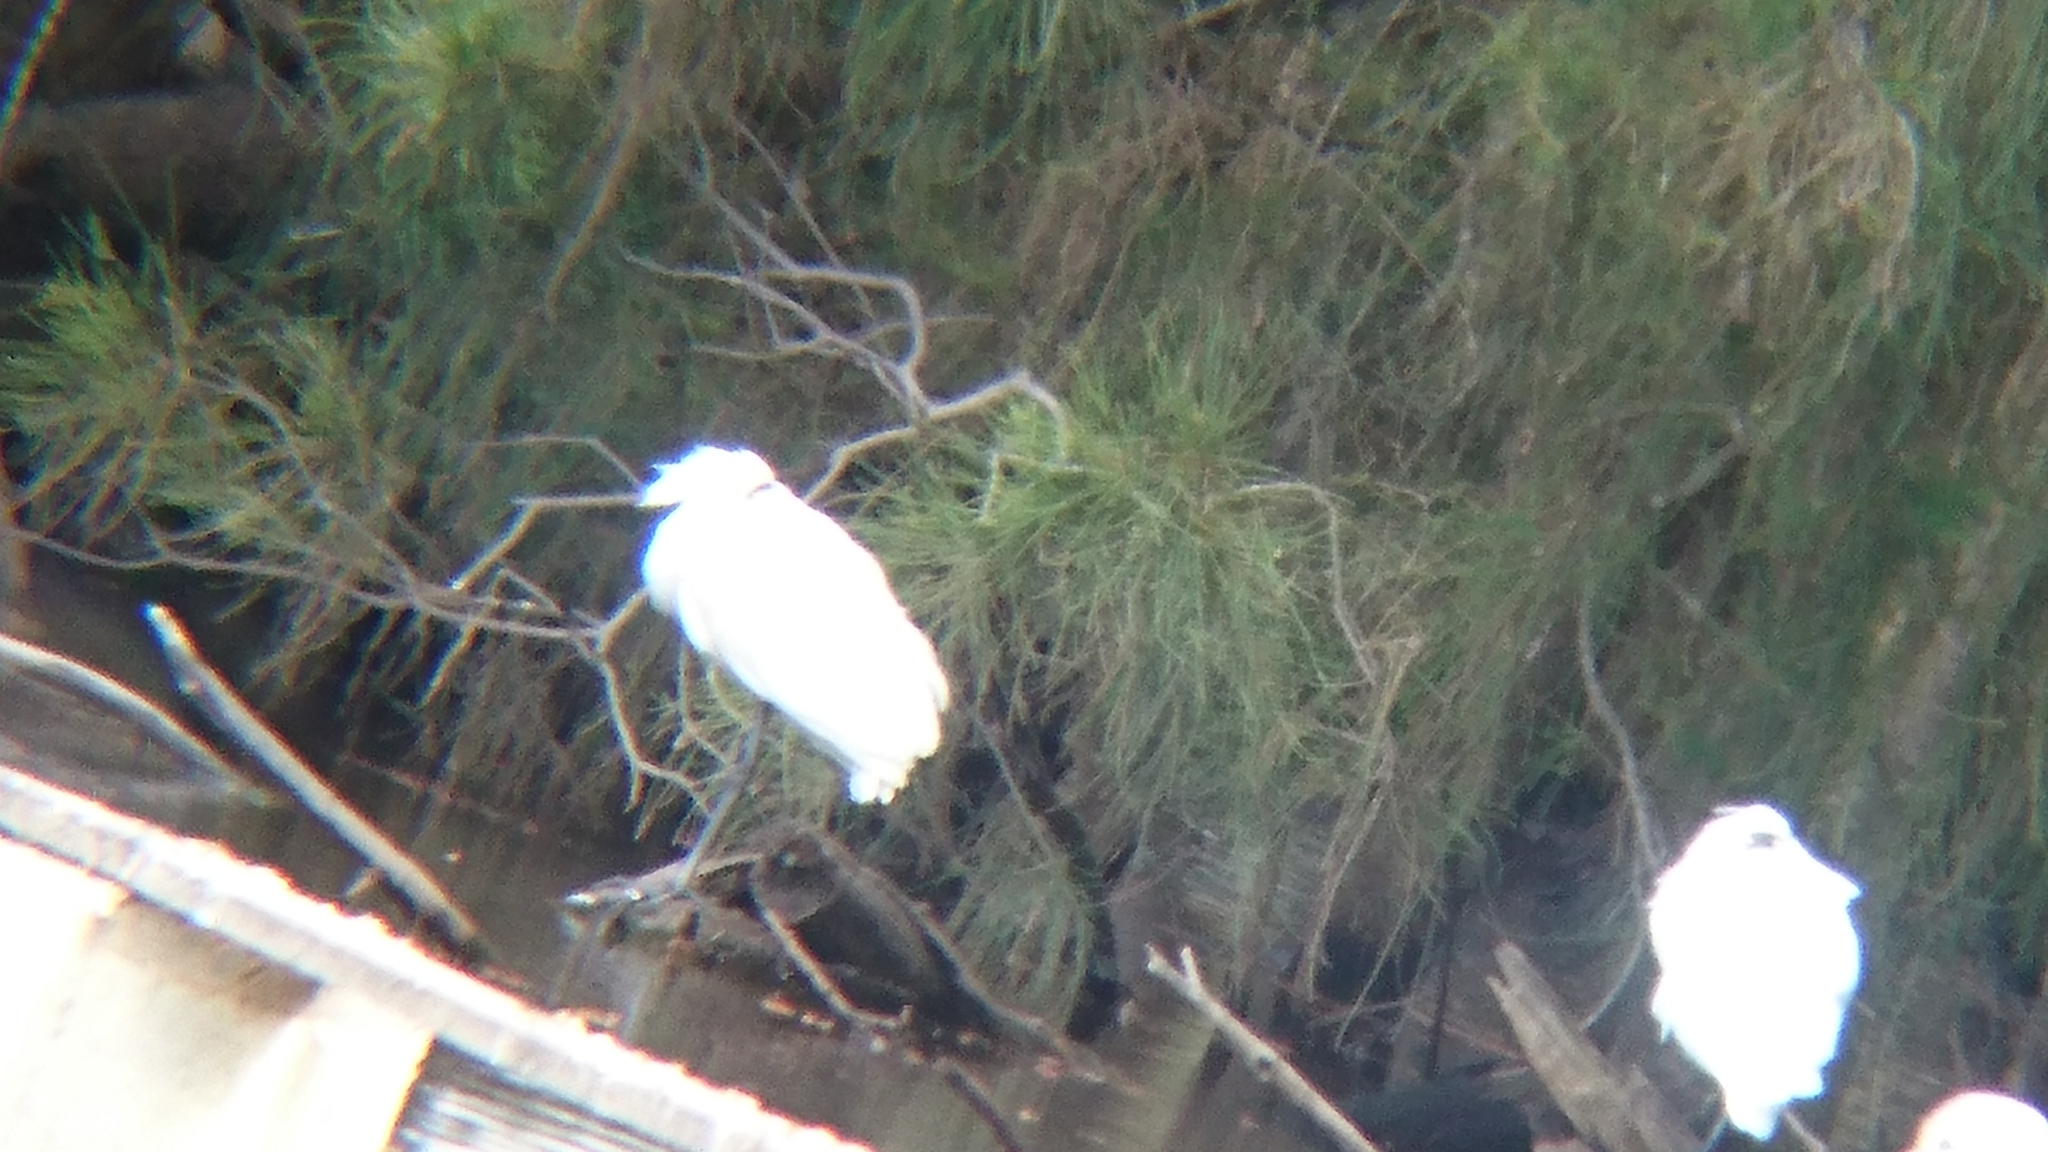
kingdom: Animalia
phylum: Chordata
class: Aves
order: Pelecaniformes
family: Threskiornithidae
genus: Platalea
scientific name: Platalea regia
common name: Royal spoonbill
